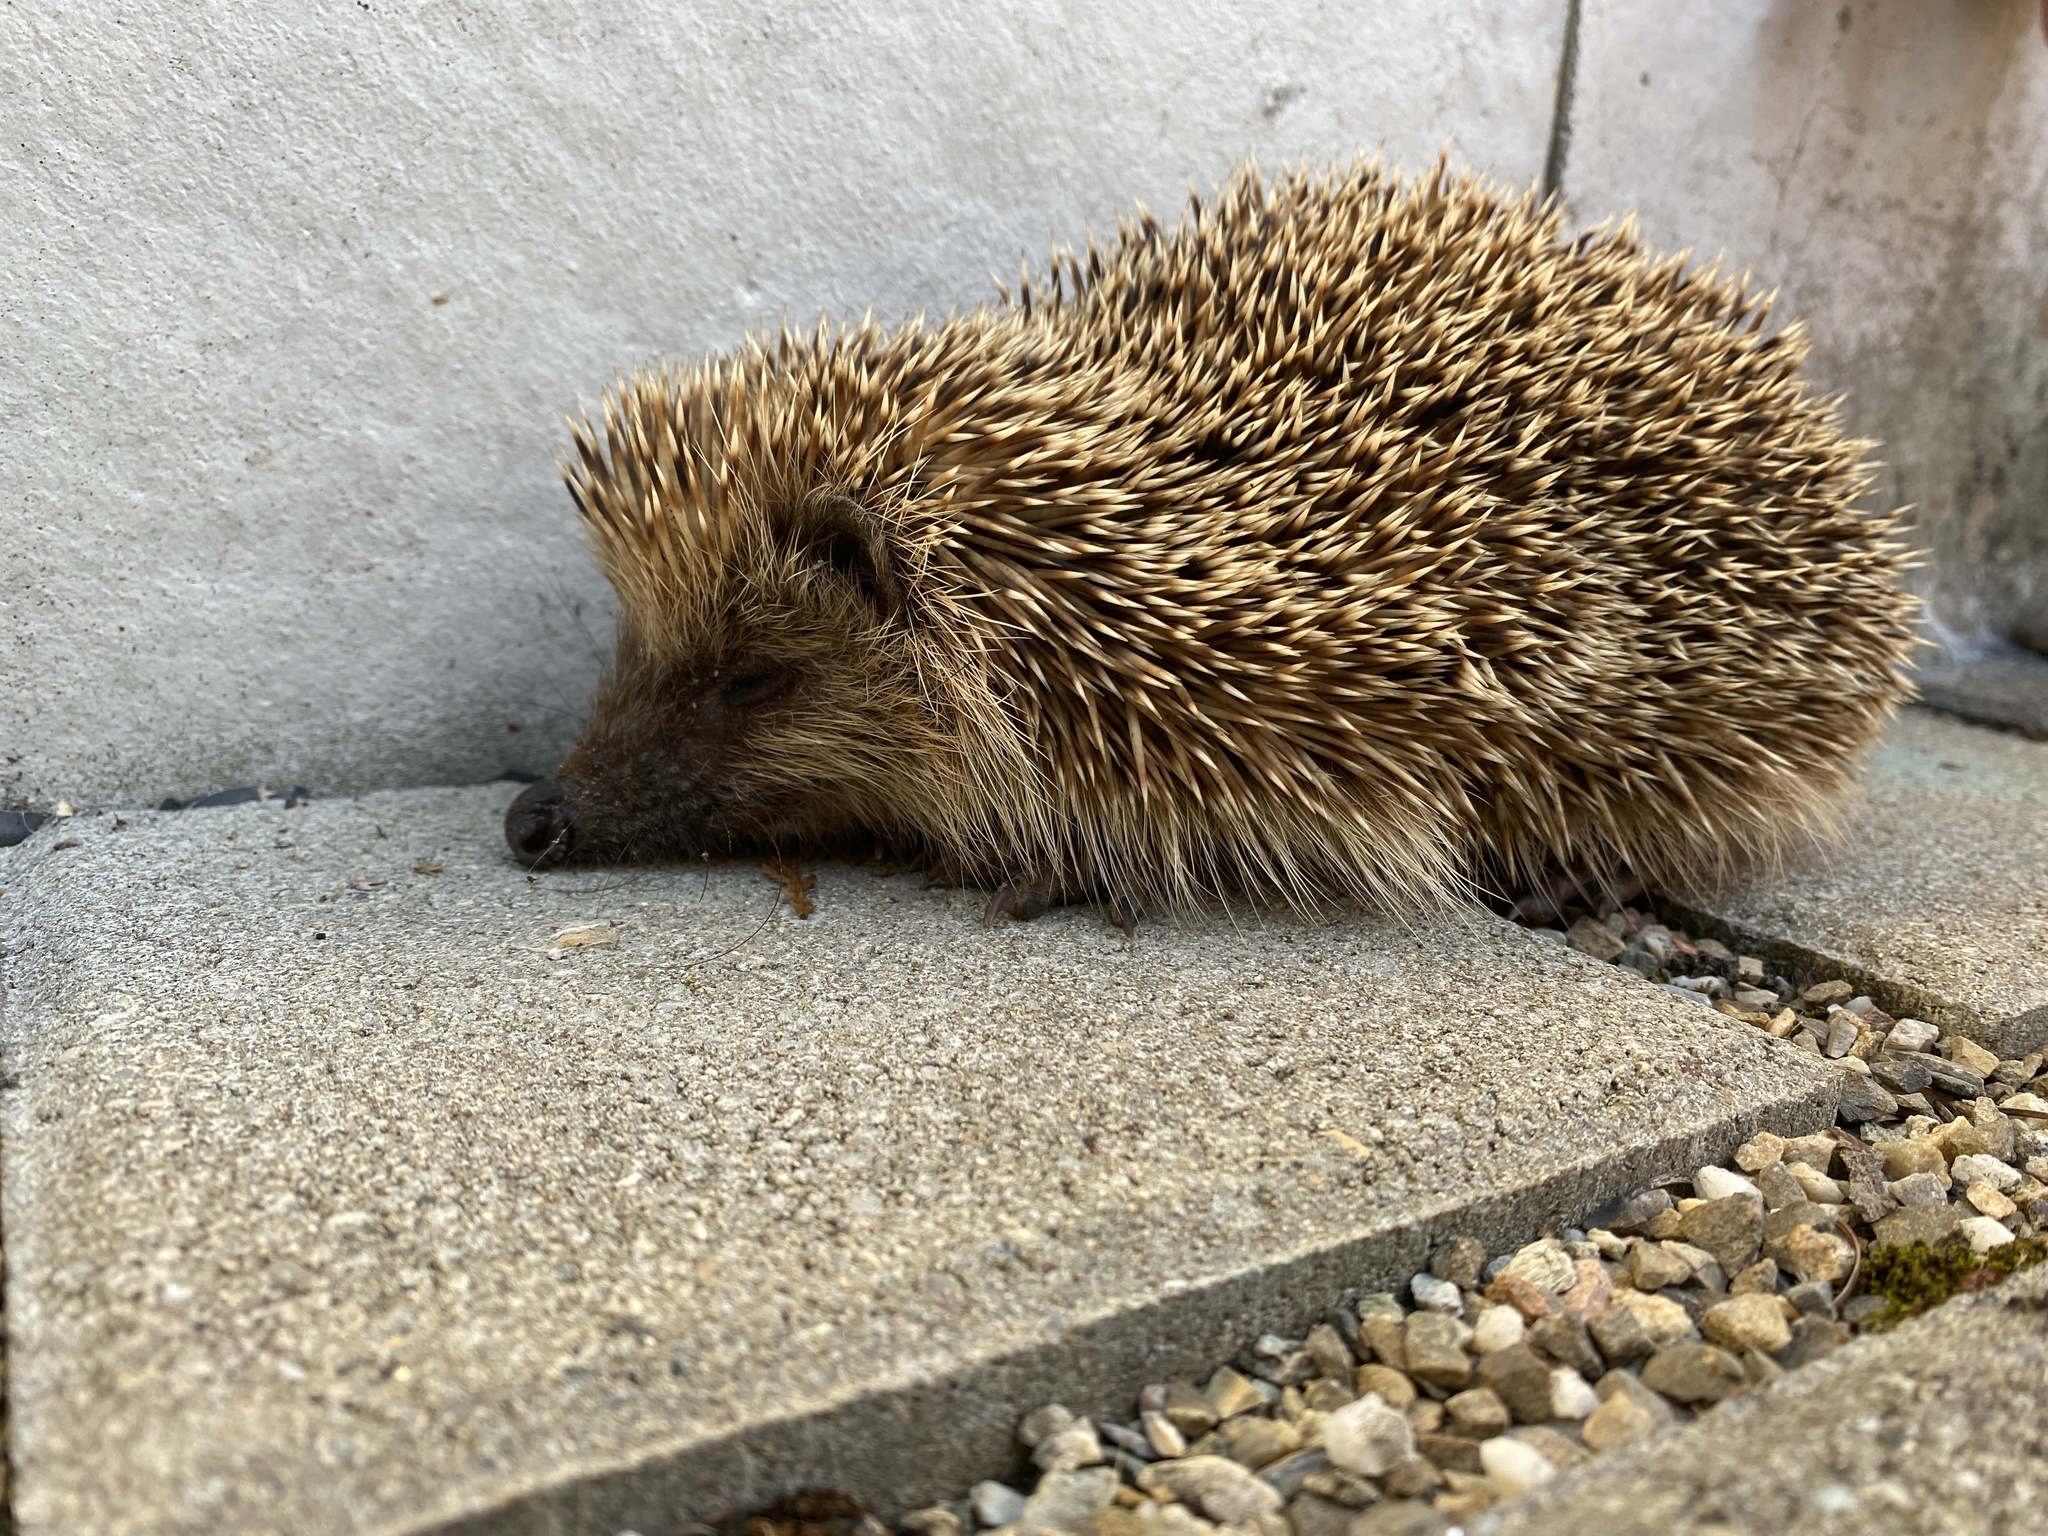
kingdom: Animalia
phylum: Chordata
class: Mammalia
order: Erinaceomorpha
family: Erinaceidae
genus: Erinaceus
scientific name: Erinaceus europaeus
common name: West european hedgehog
